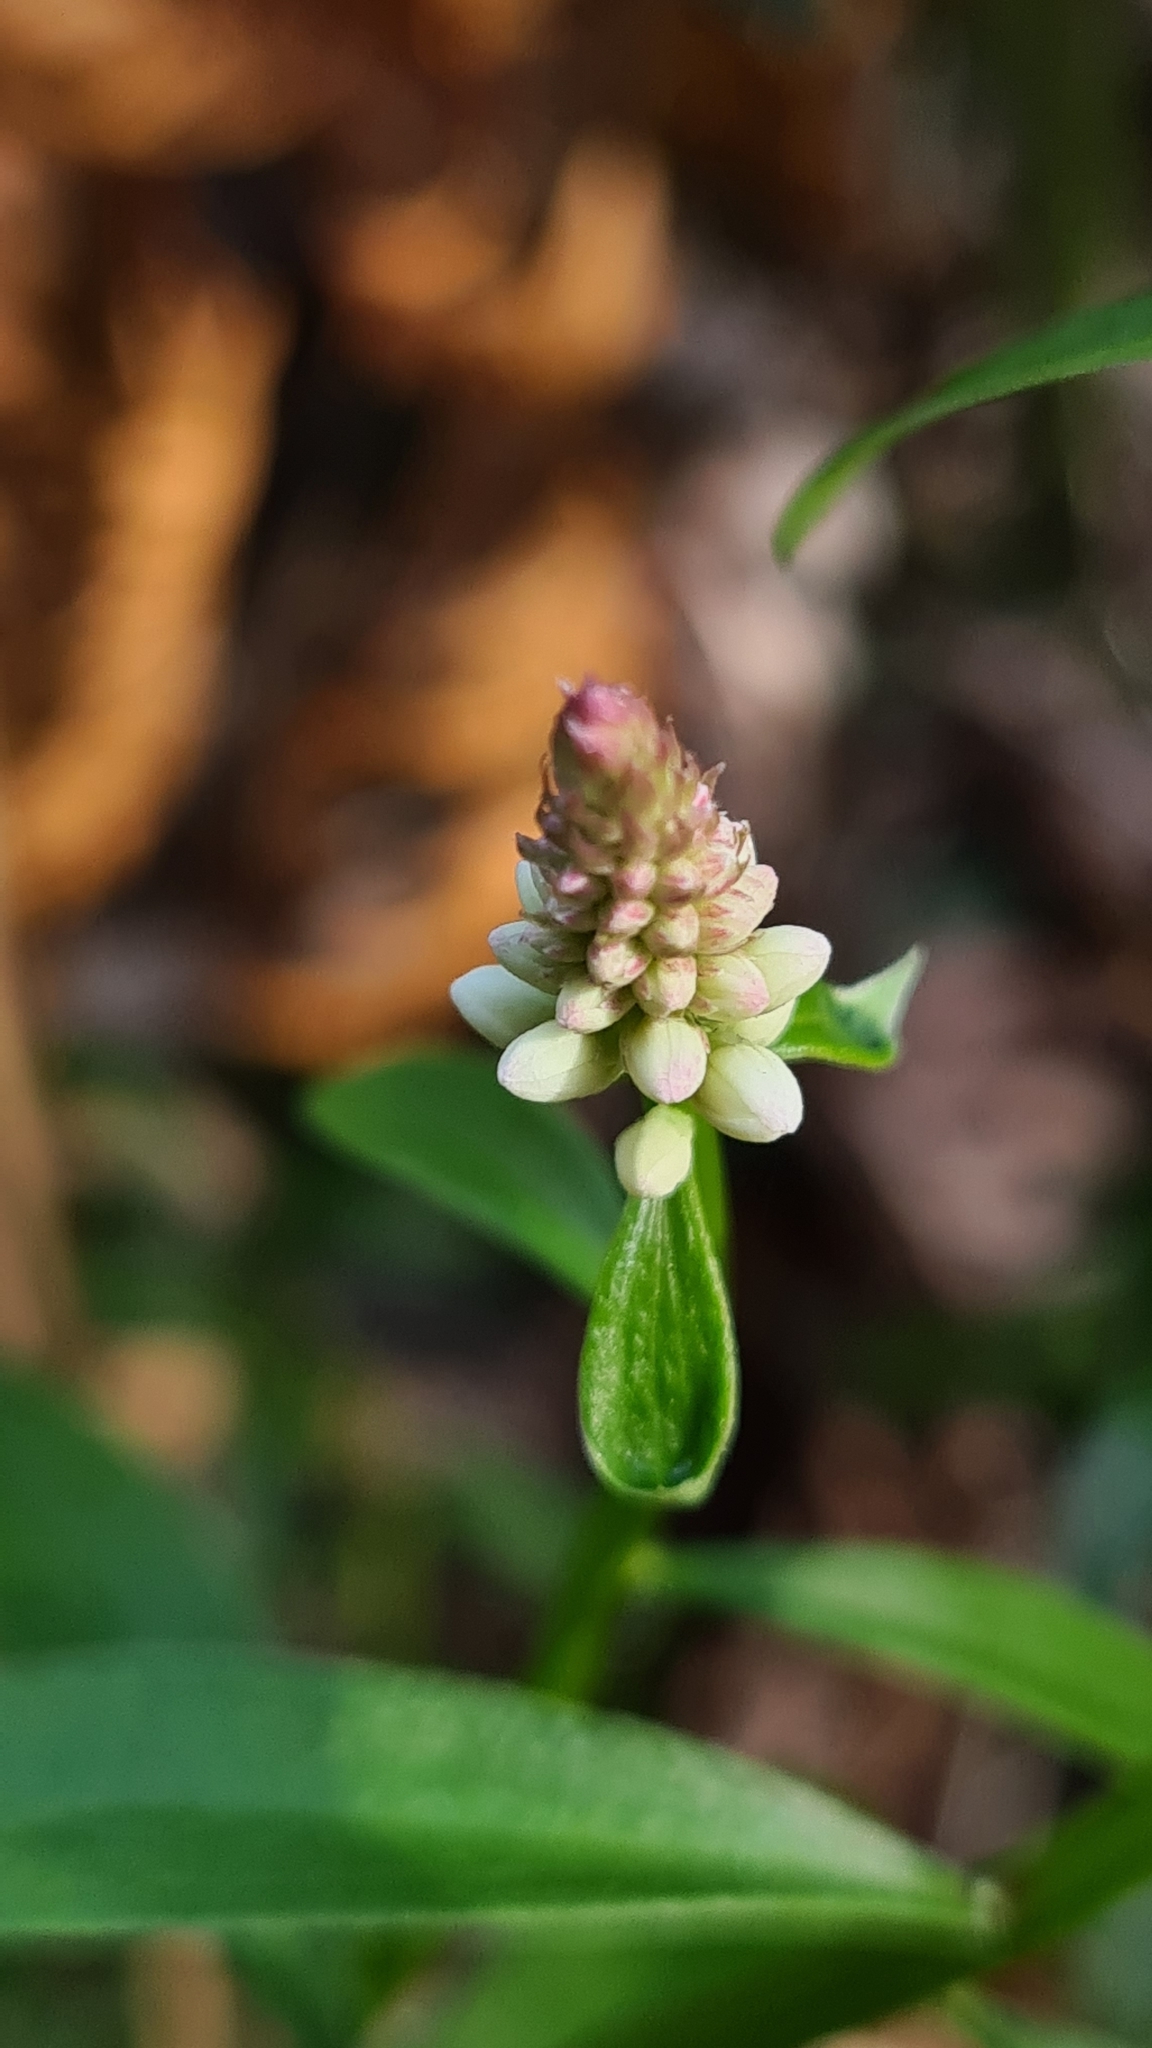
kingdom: Plantae
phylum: Tracheophyta
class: Magnoliopsida
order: Celastrales
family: Celastraceae
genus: Stackhousia
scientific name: Stackhousia monogyna
